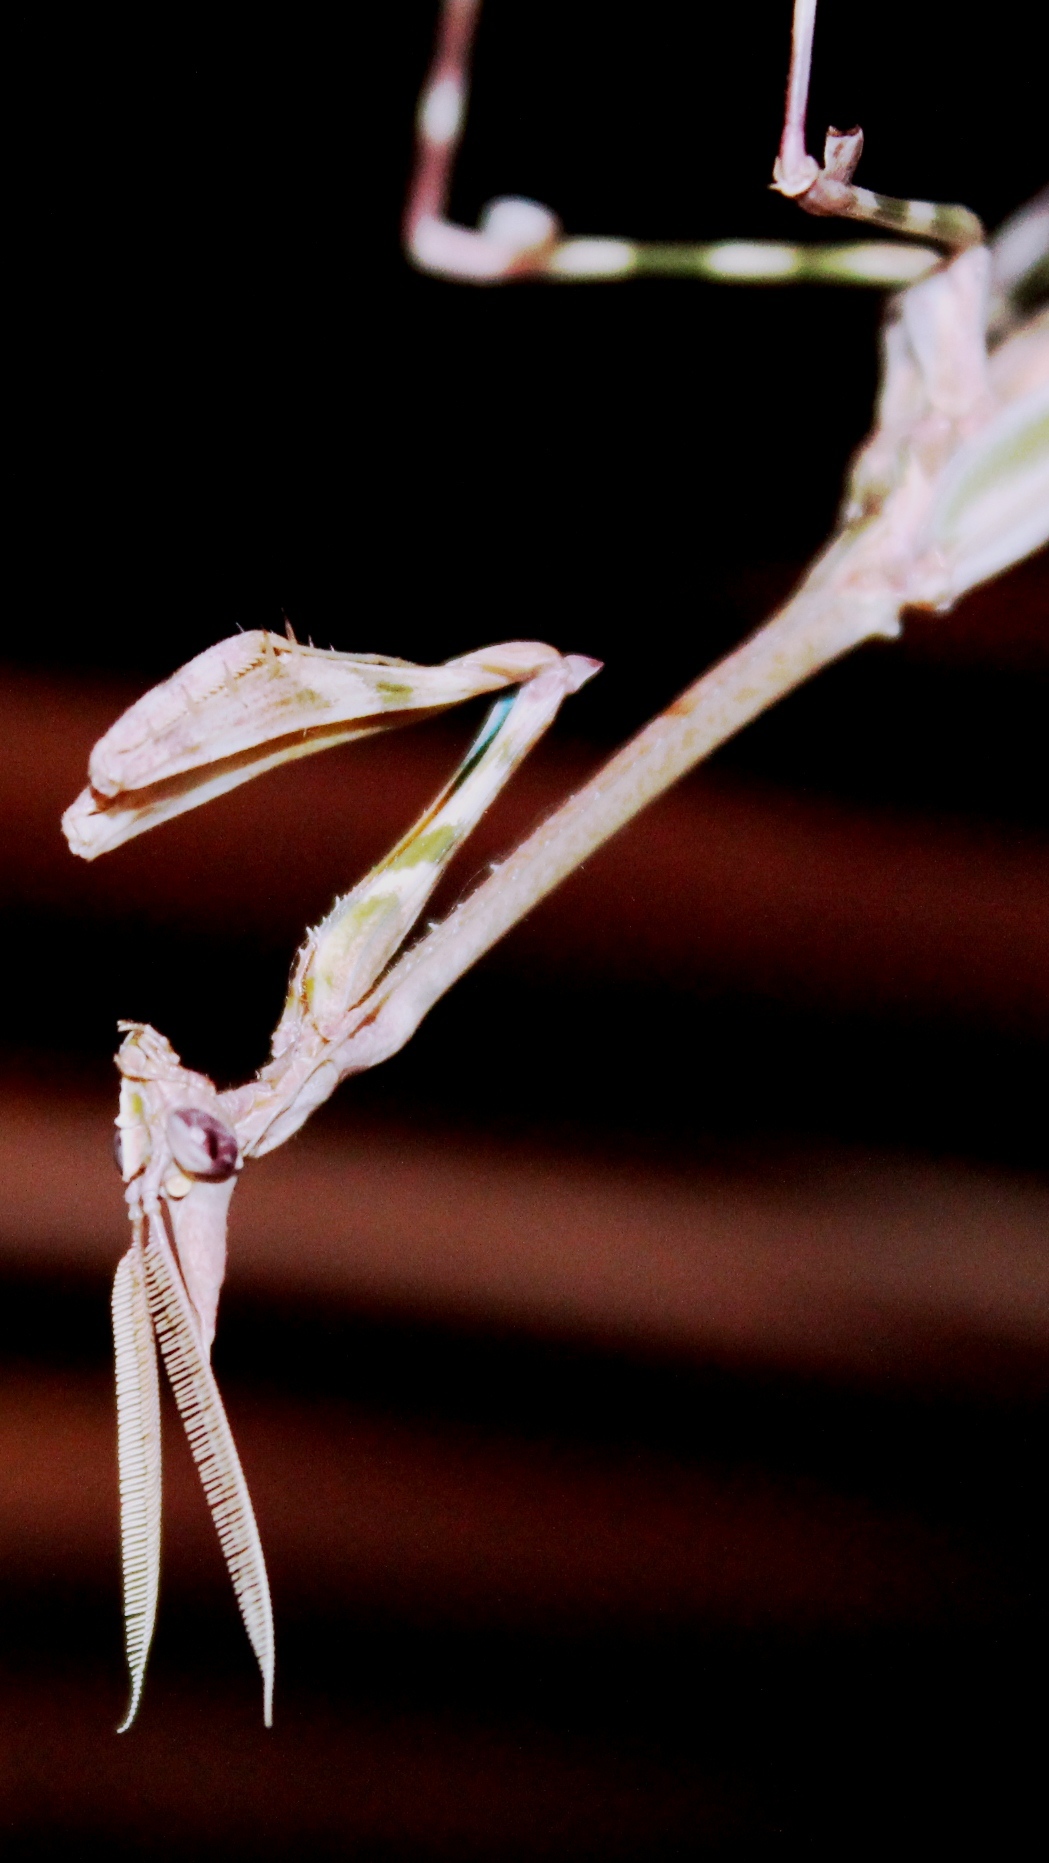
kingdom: Animalia
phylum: Arthropoda
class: Insecta
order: Mantodea
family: Empusidae
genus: Empusa
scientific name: Empusa binotata
